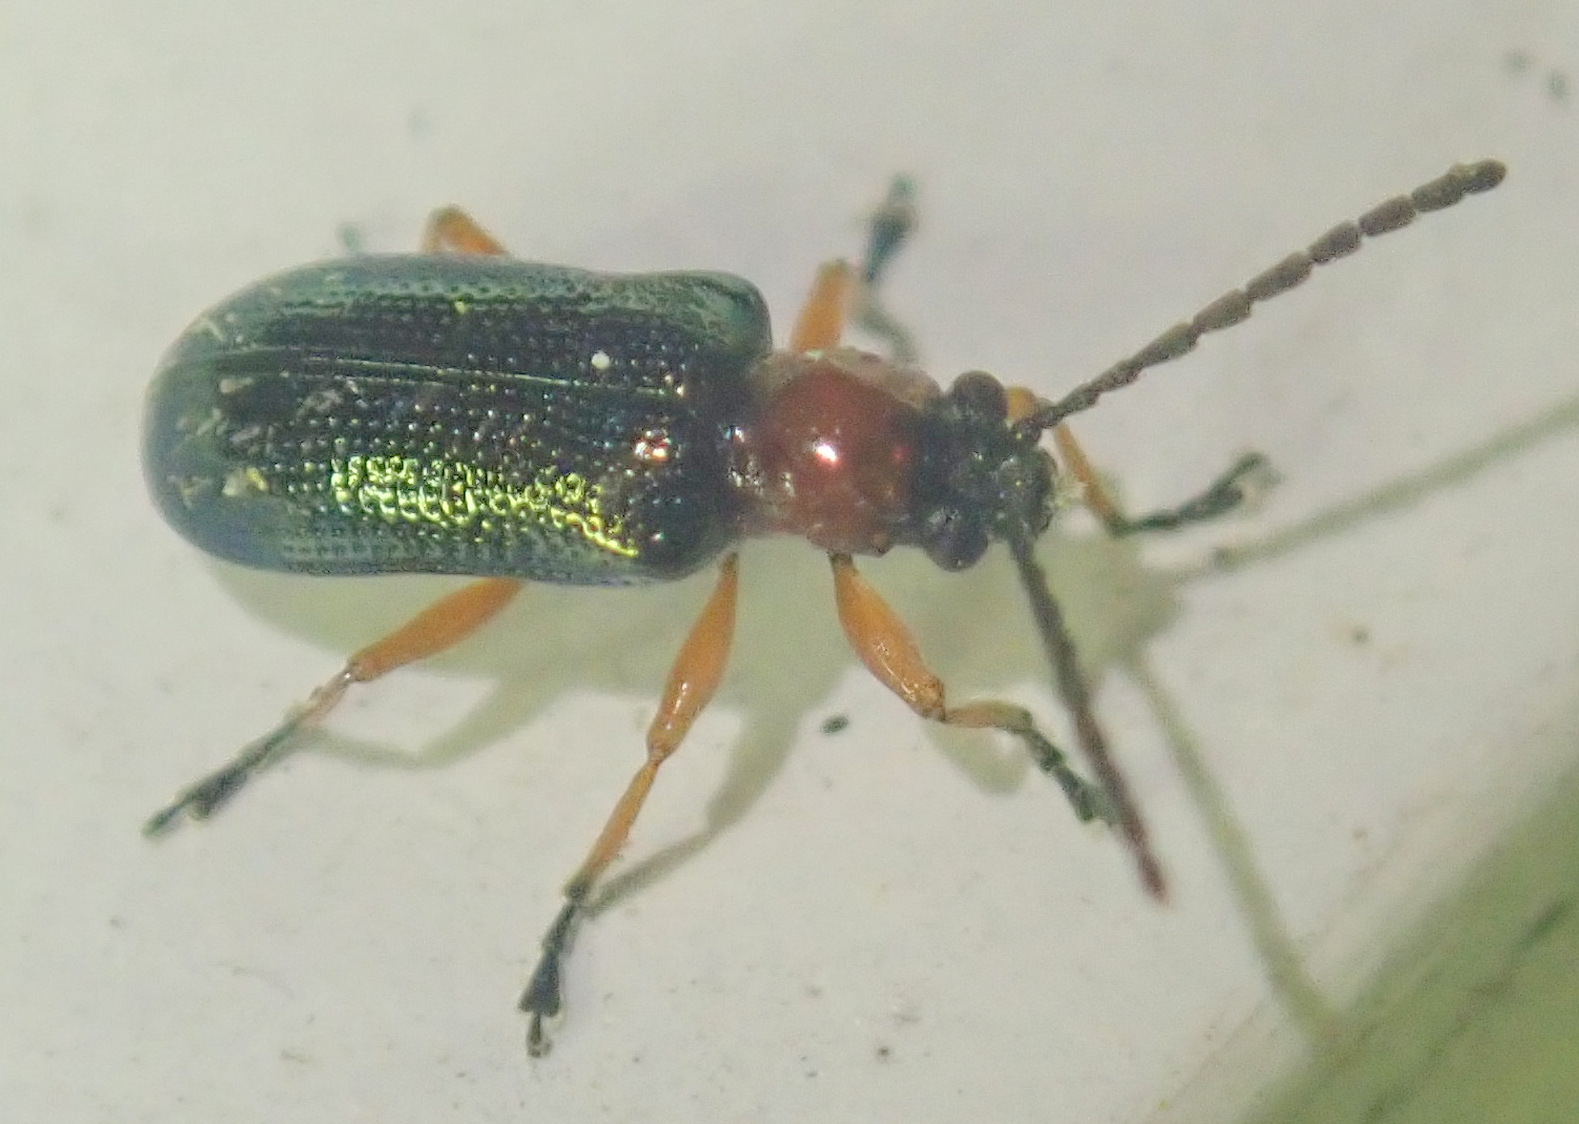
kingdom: Animalia
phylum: Arthropoda
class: Insecta
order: Coleoptera
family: Chrysomelidae
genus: Oulema
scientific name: Oulema
